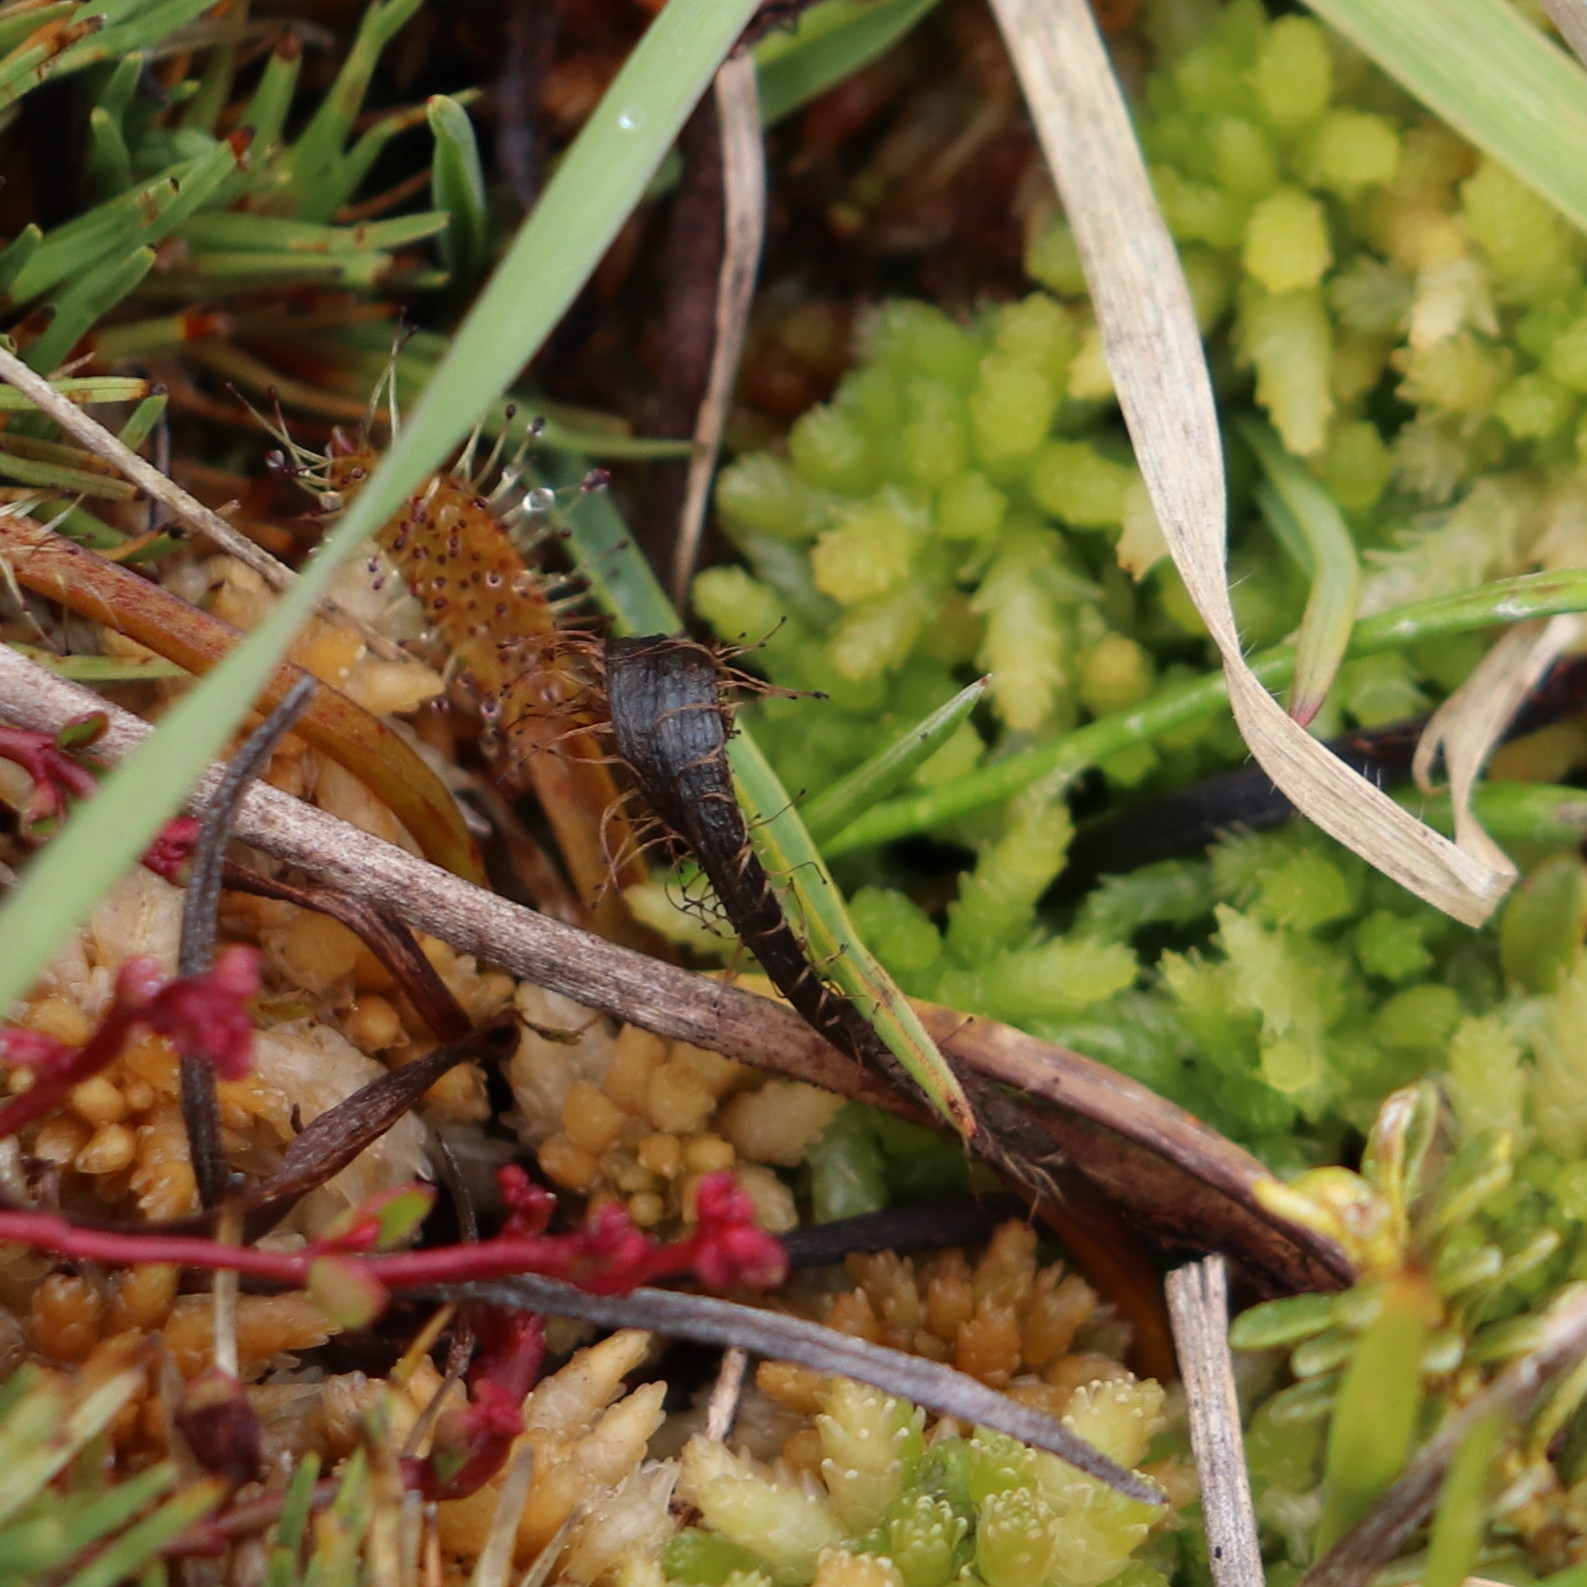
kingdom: Plantae
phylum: Tracheophyta
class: Magnoliopsida
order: Caryophyllales
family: Droseraceae
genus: Drosera
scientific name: Drosera arcturi
